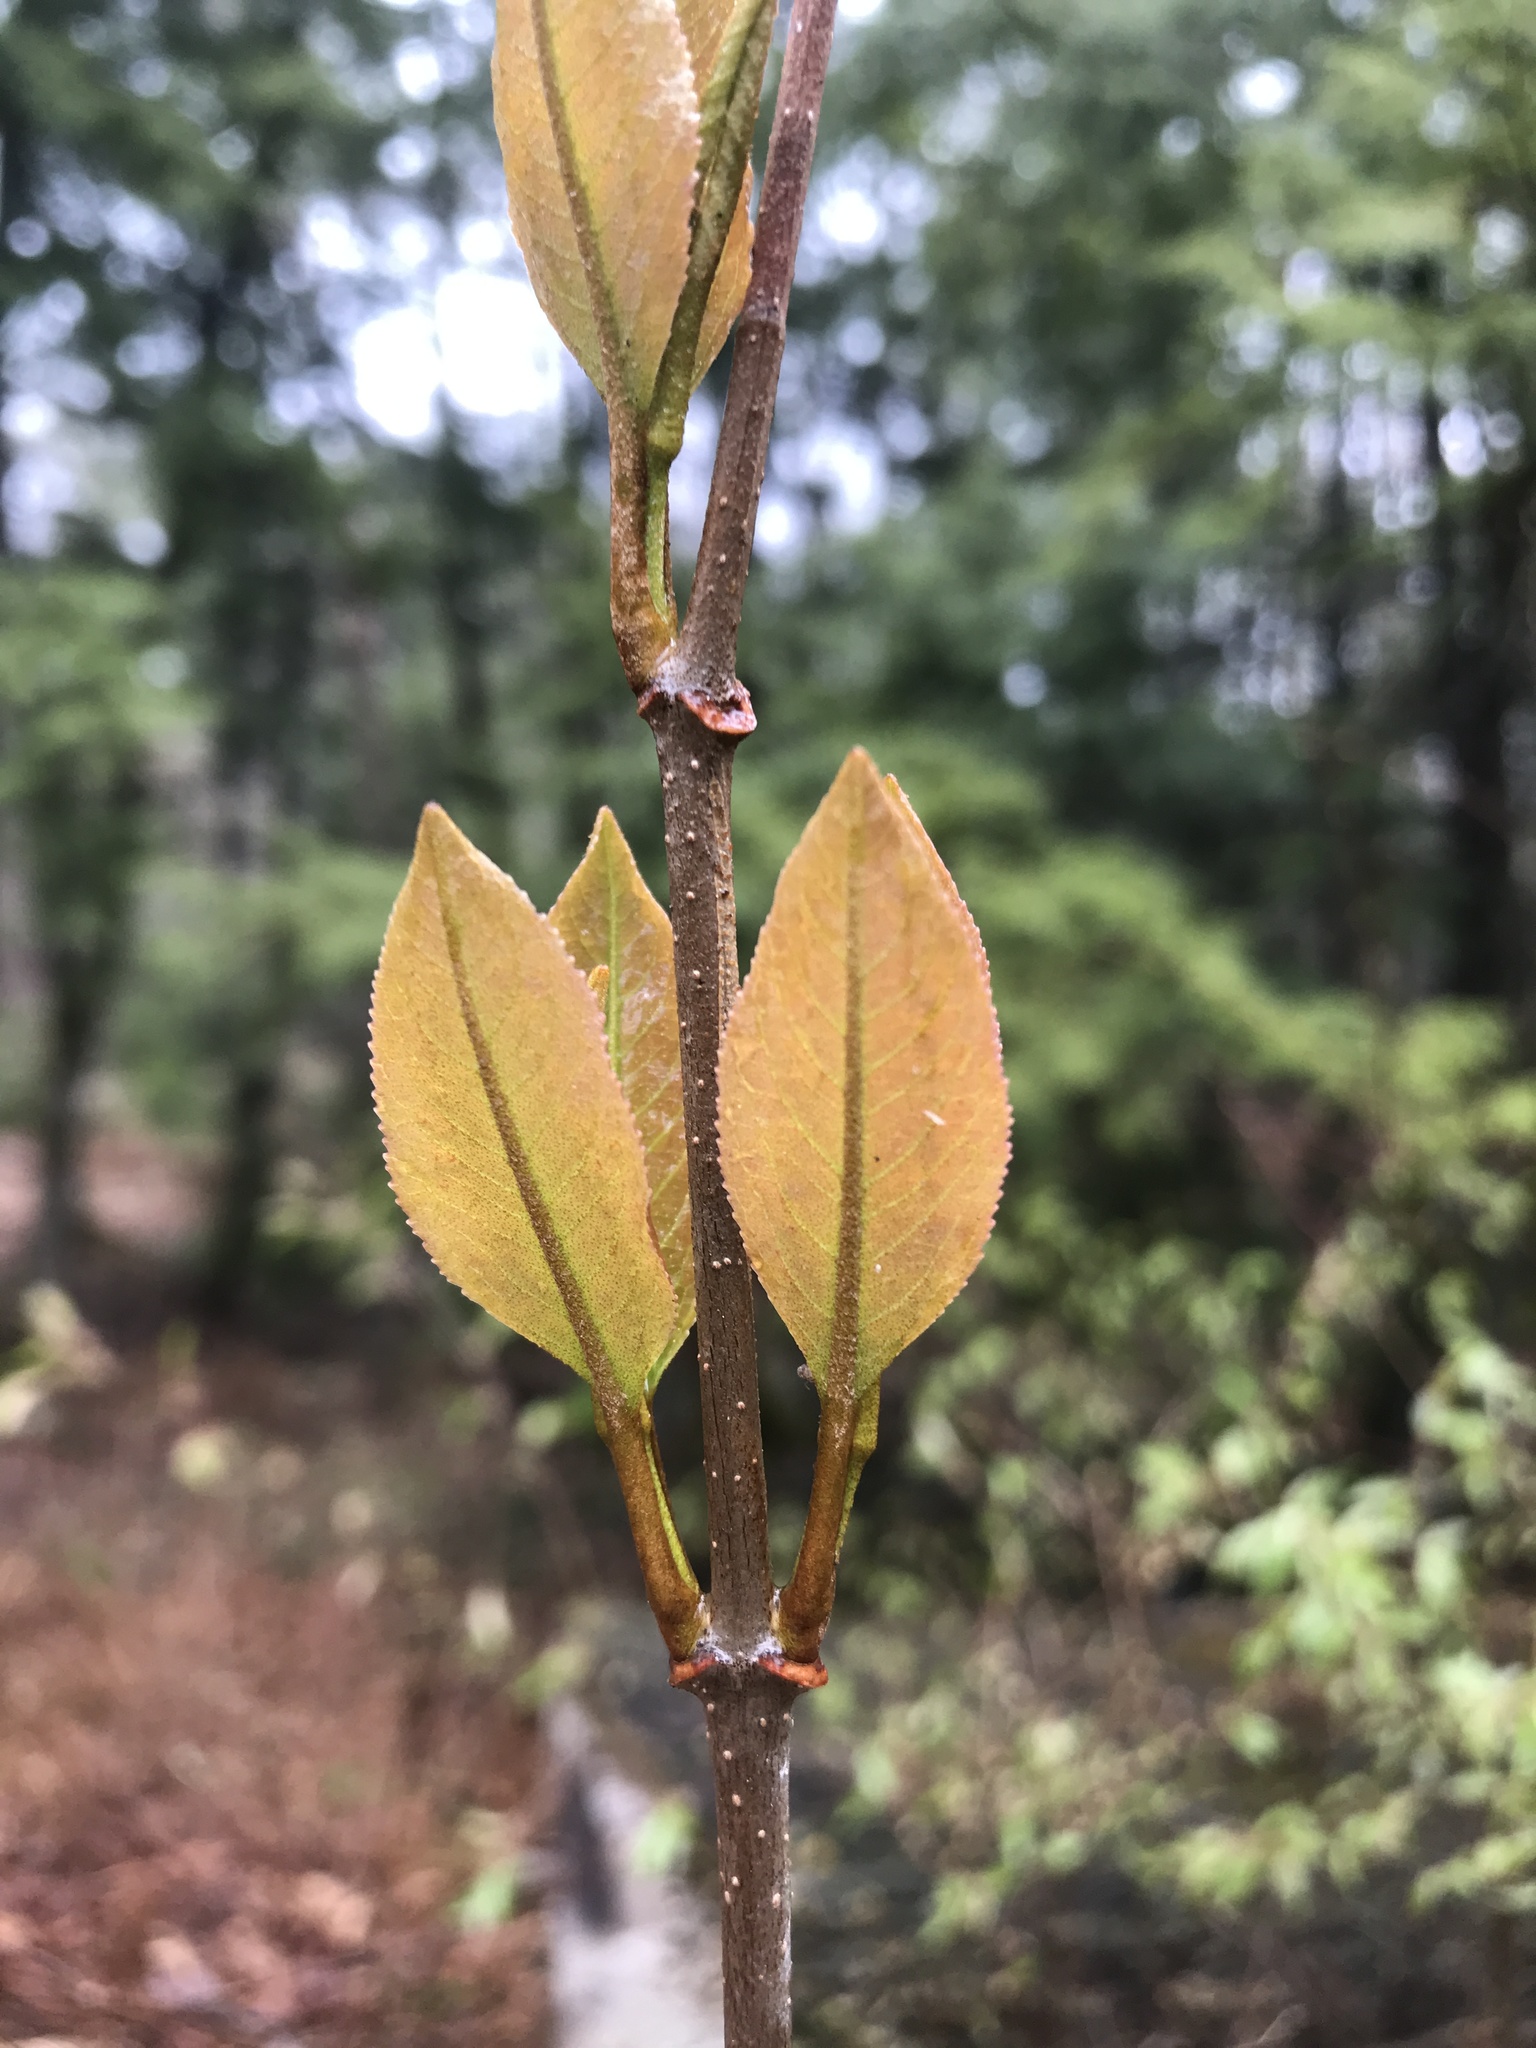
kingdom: Plantae
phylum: Tracheophyta
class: Magnoliopsida
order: Dipsacales
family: Viburnaceae
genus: Viburnum
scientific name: Viburnum lentago
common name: Black haw
